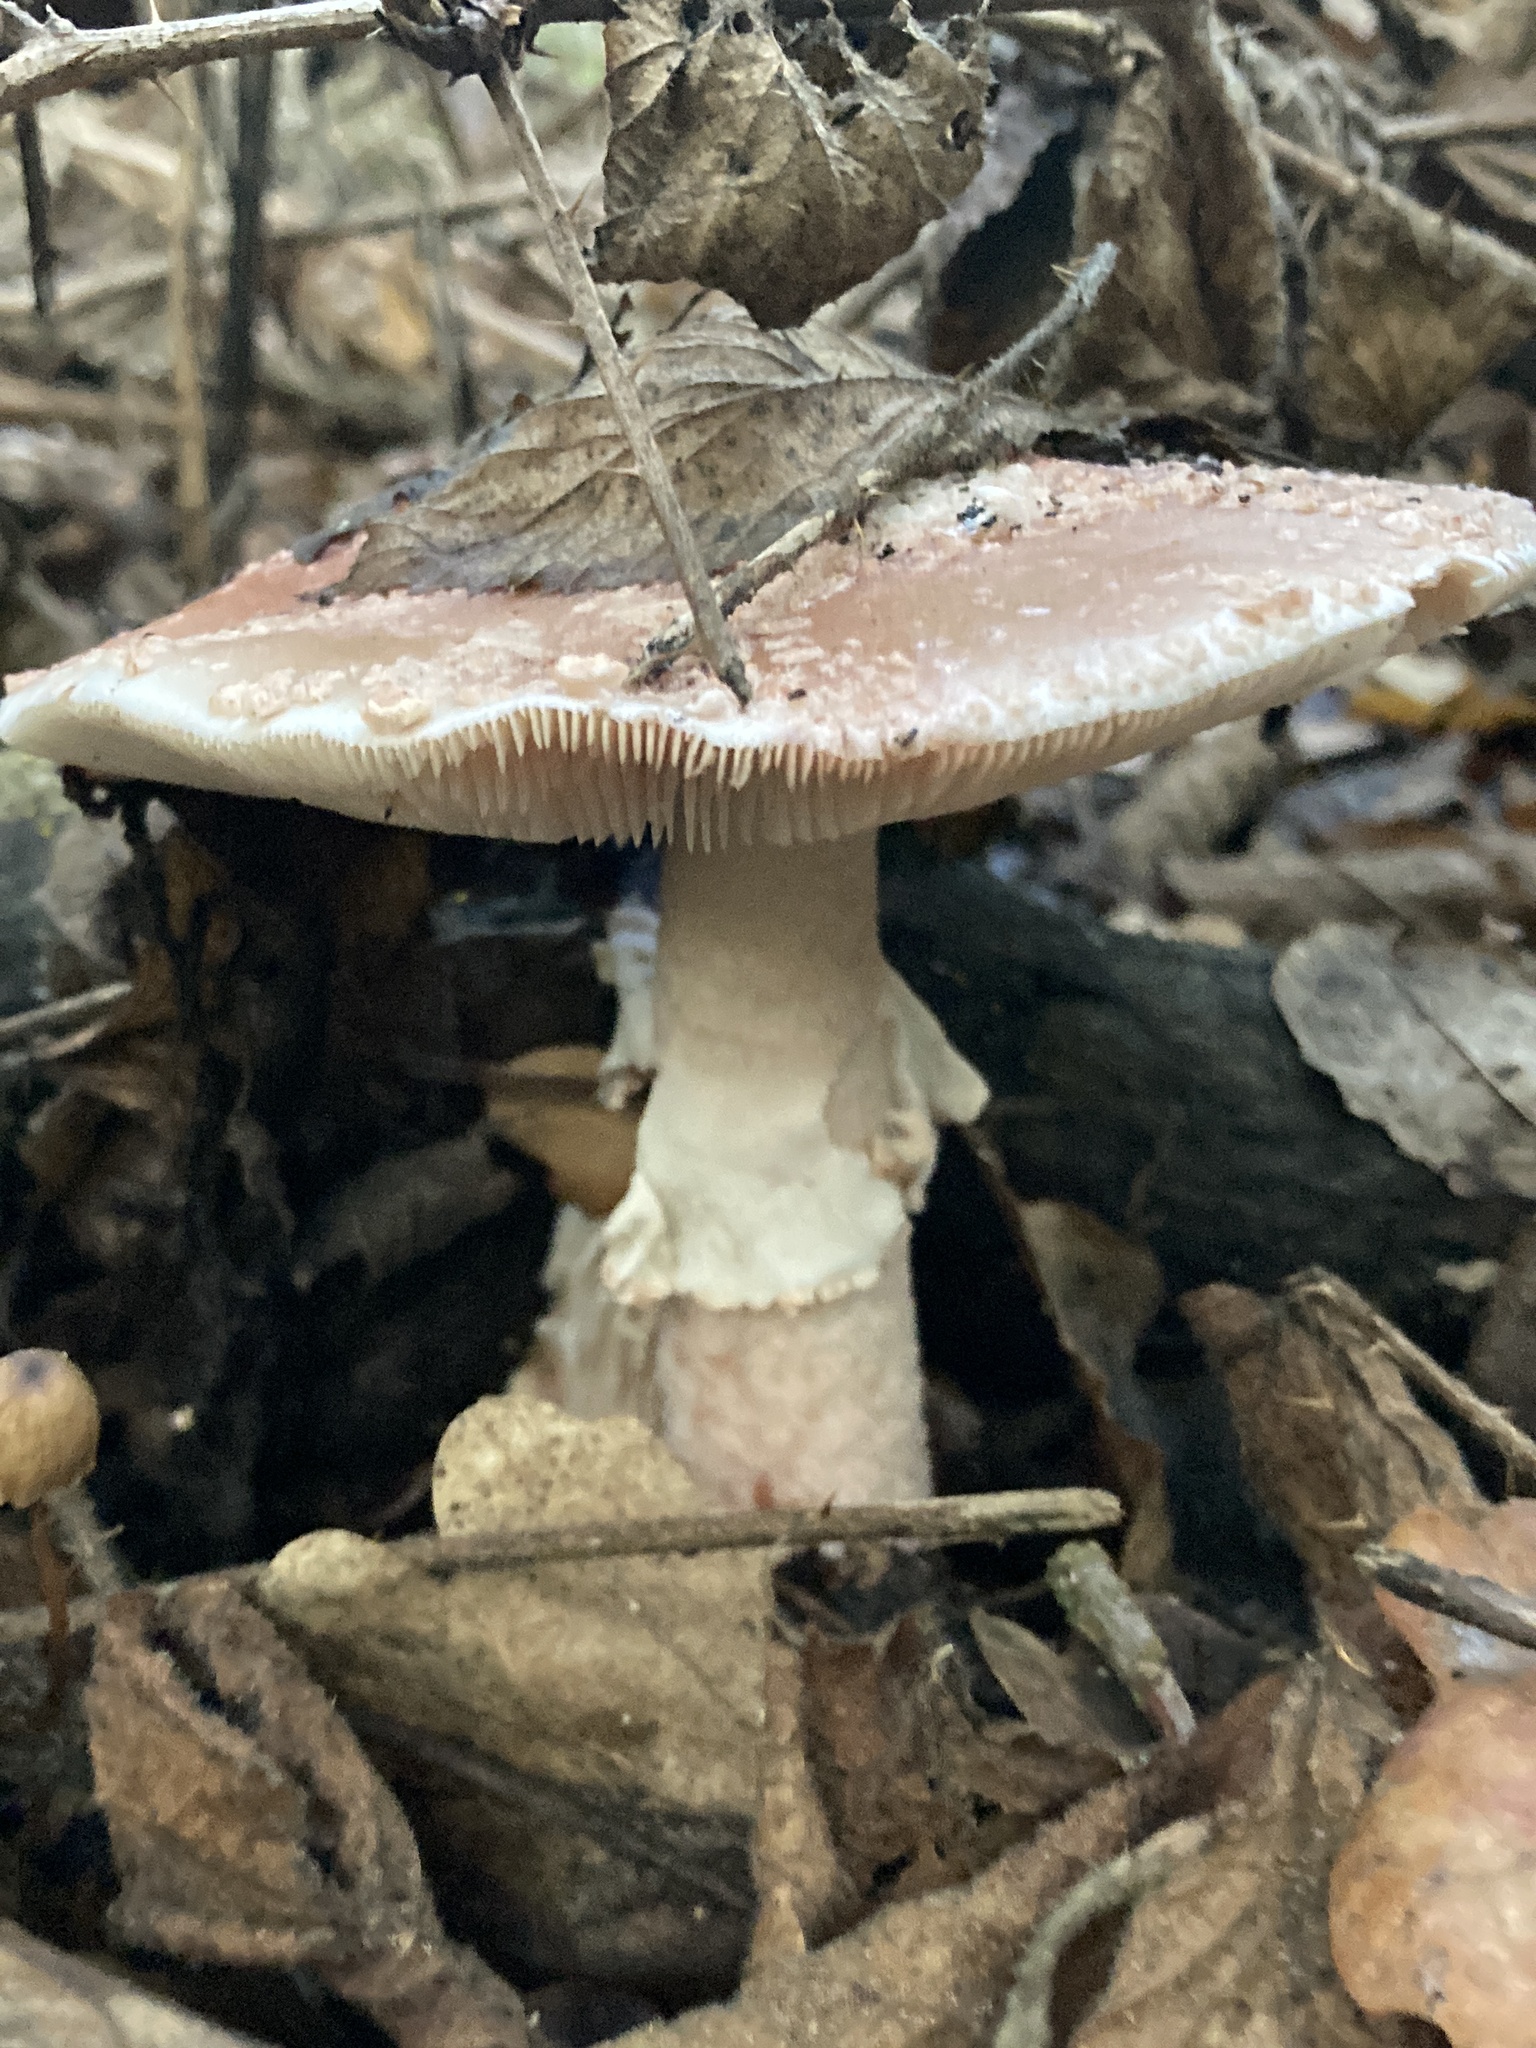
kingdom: Fungi
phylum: Basidiomycota
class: Agaricomycetes
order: Agaricales
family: Amanitaceae
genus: Amanita
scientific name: Amanita rubescens
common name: Blusher
